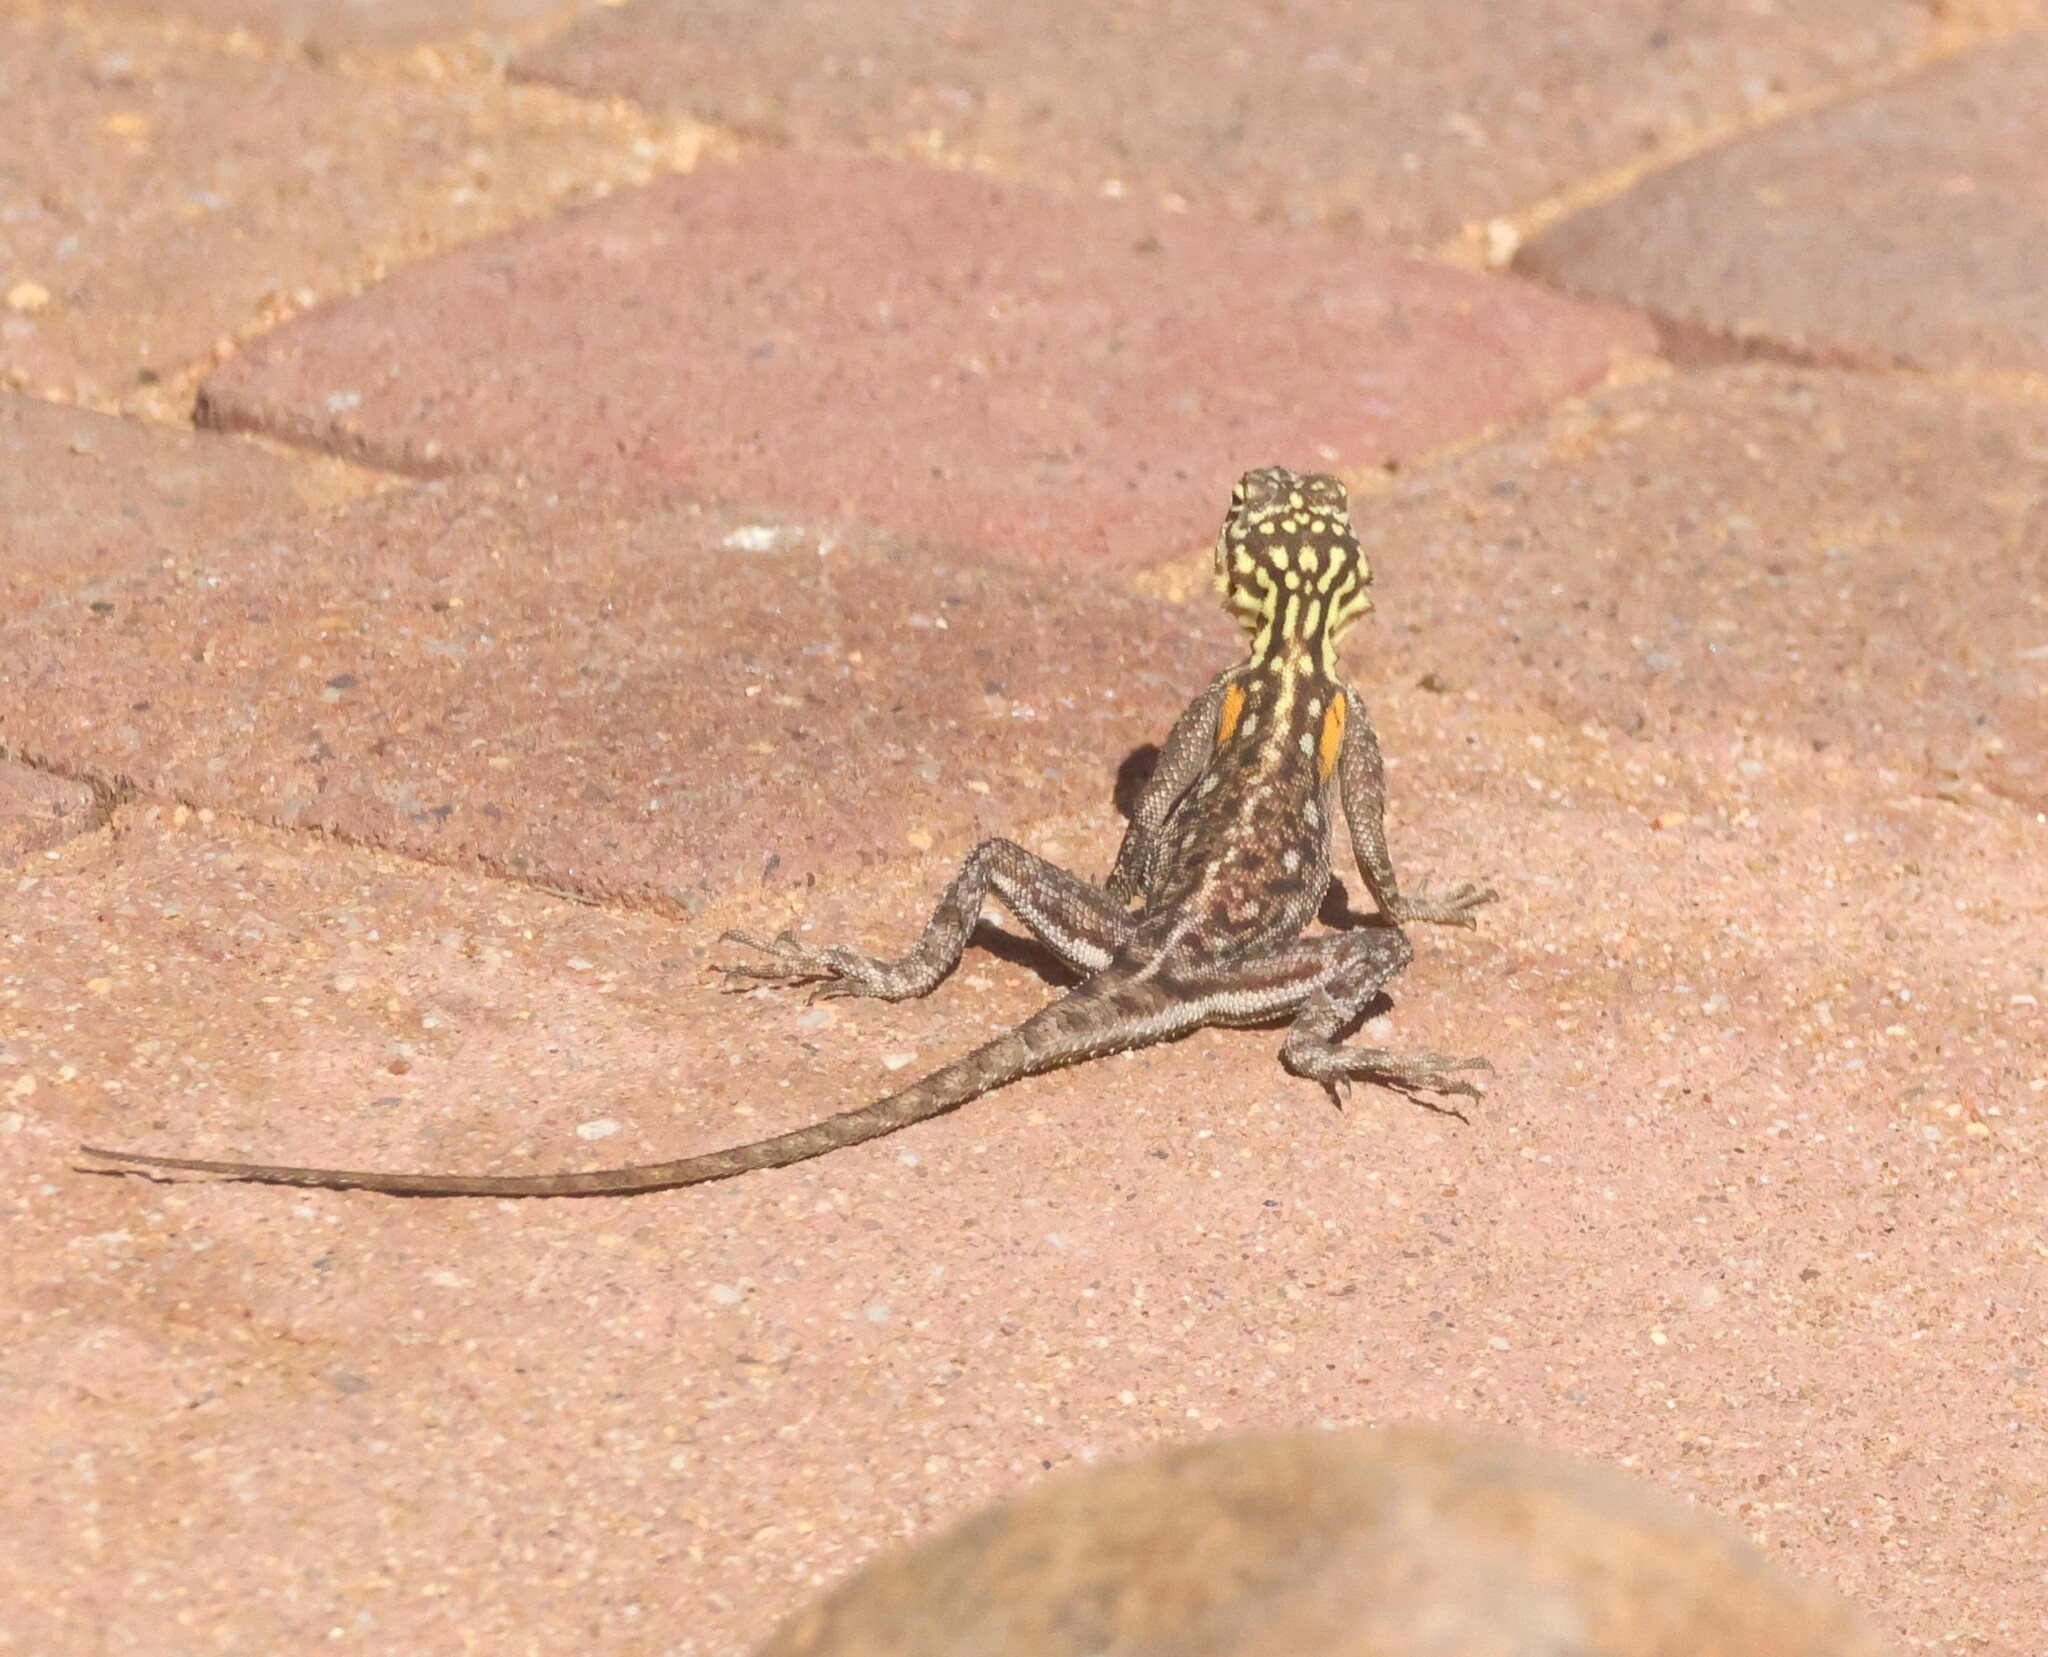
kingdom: Animalia
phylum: Chordata
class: Squamata
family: Agamidae
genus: Agama
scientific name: Agama planiceps
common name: Namib rock agama
